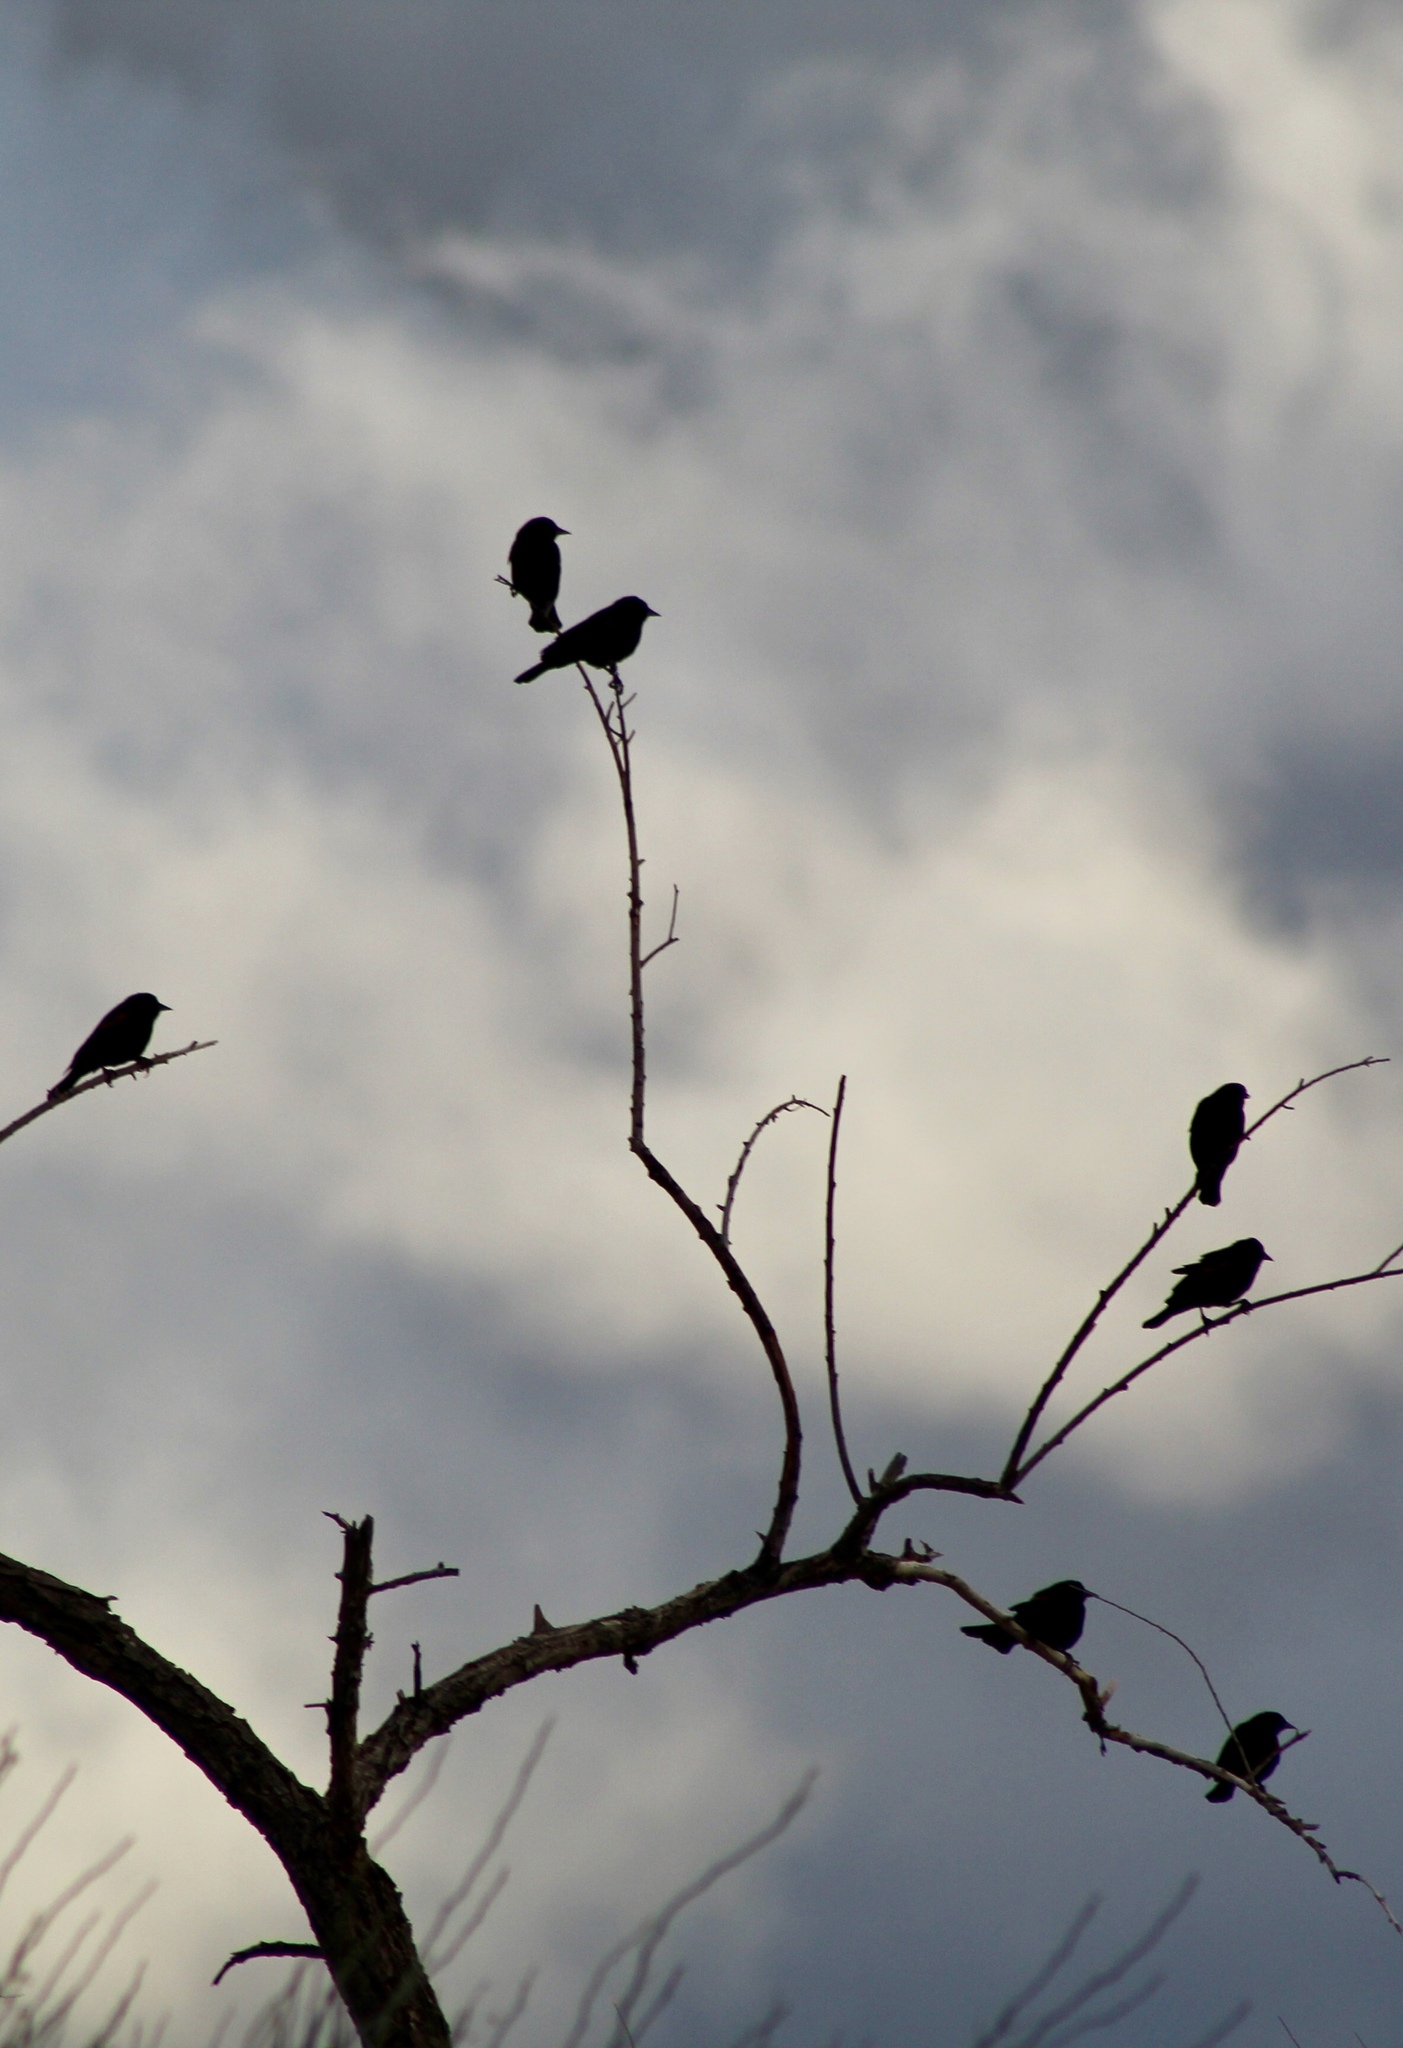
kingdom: Animalia
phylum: Chordata
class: Aves
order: Passeriformes
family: Icteridae
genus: Agelaius
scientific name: Agelaius phoeniceus
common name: Red-winged blackbird
